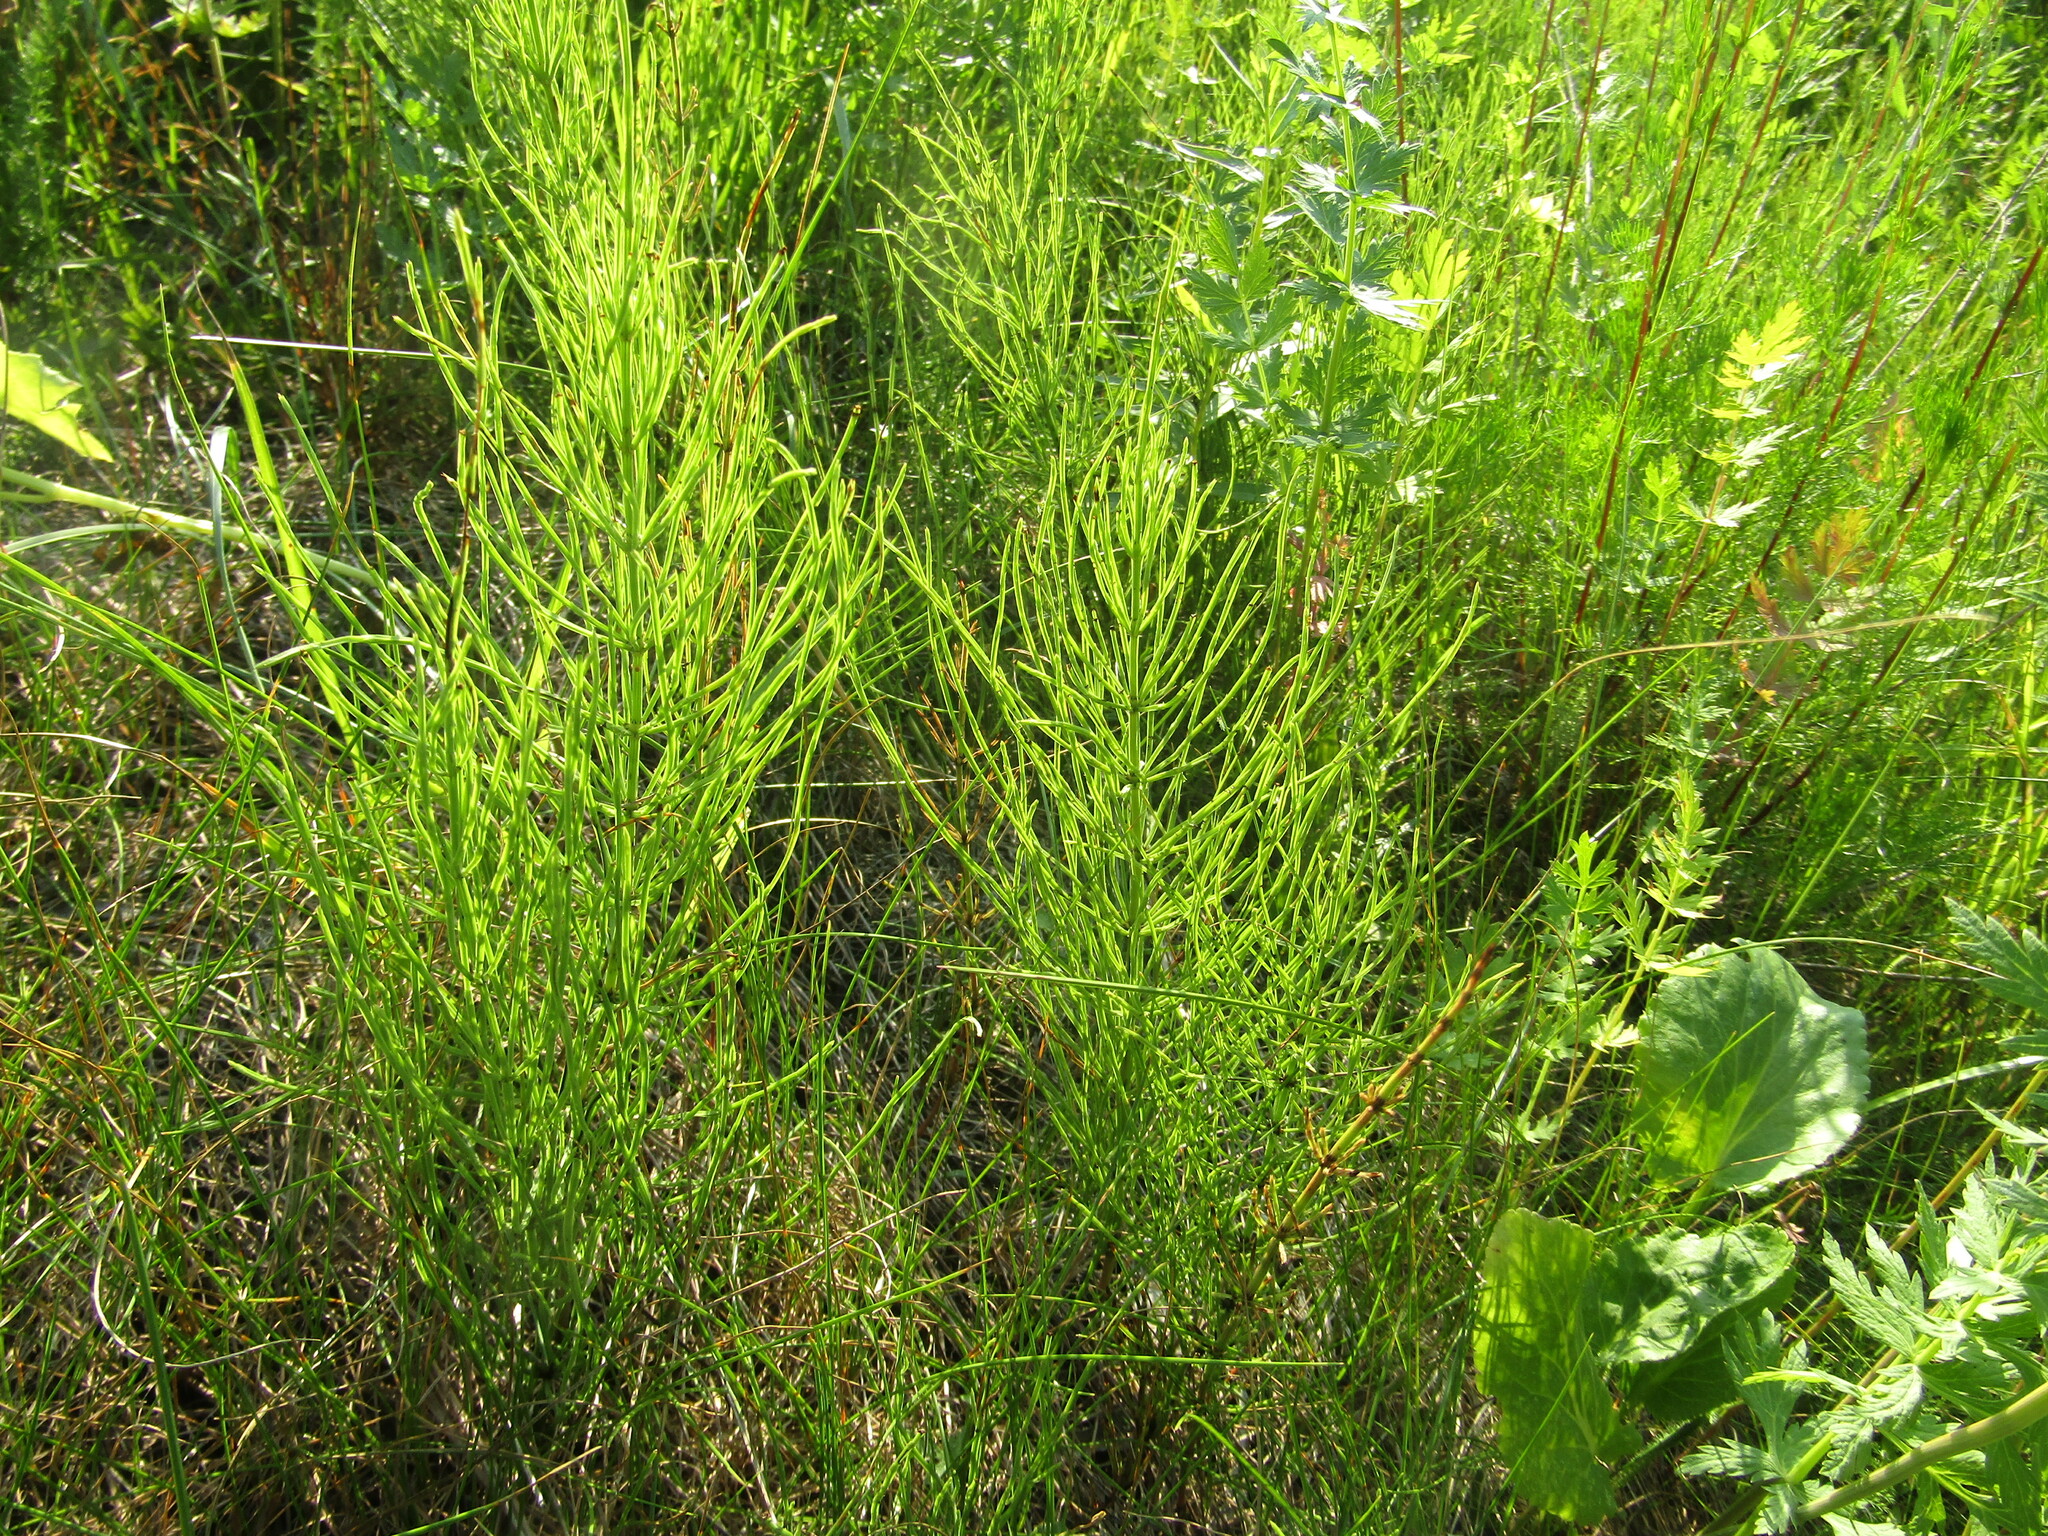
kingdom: Plantae
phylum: Tracheophyta
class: Polypodiopsida
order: Equisetales
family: Equisetaceae
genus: Equisetum
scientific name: Equisetum arvense
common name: Field horsetail
